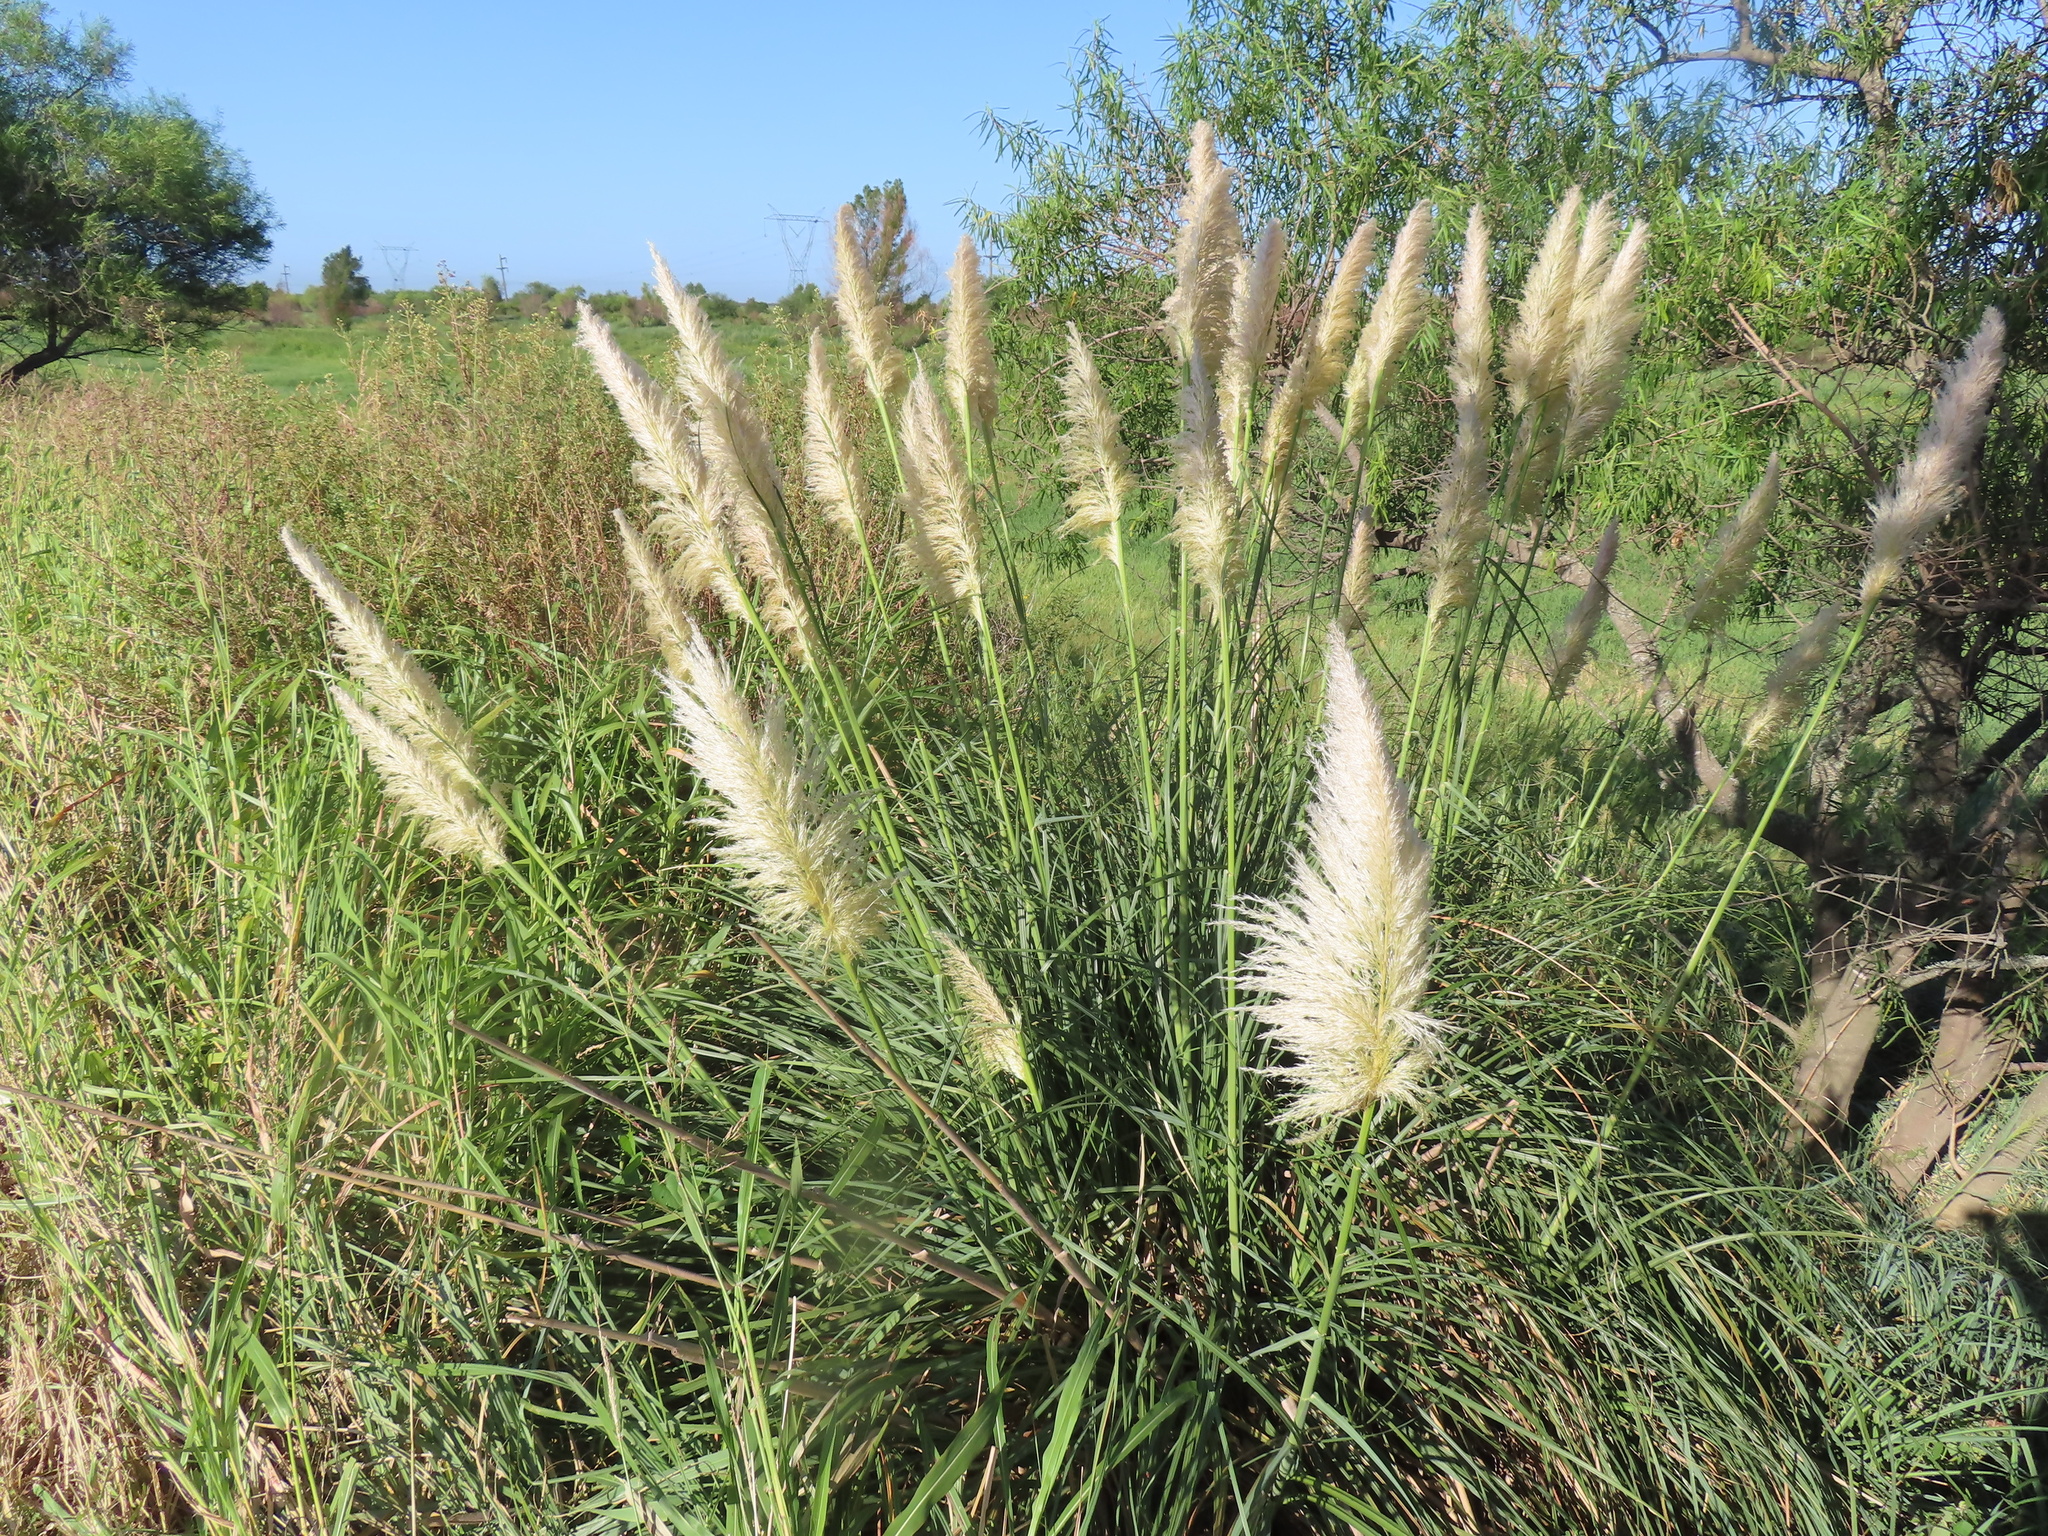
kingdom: Plantae
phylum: Tracheophyta
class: Liliopsida
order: Poales
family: Poaceae
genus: Cortaderia
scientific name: Cortaderia selloana
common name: Uruguayan pampas grass
